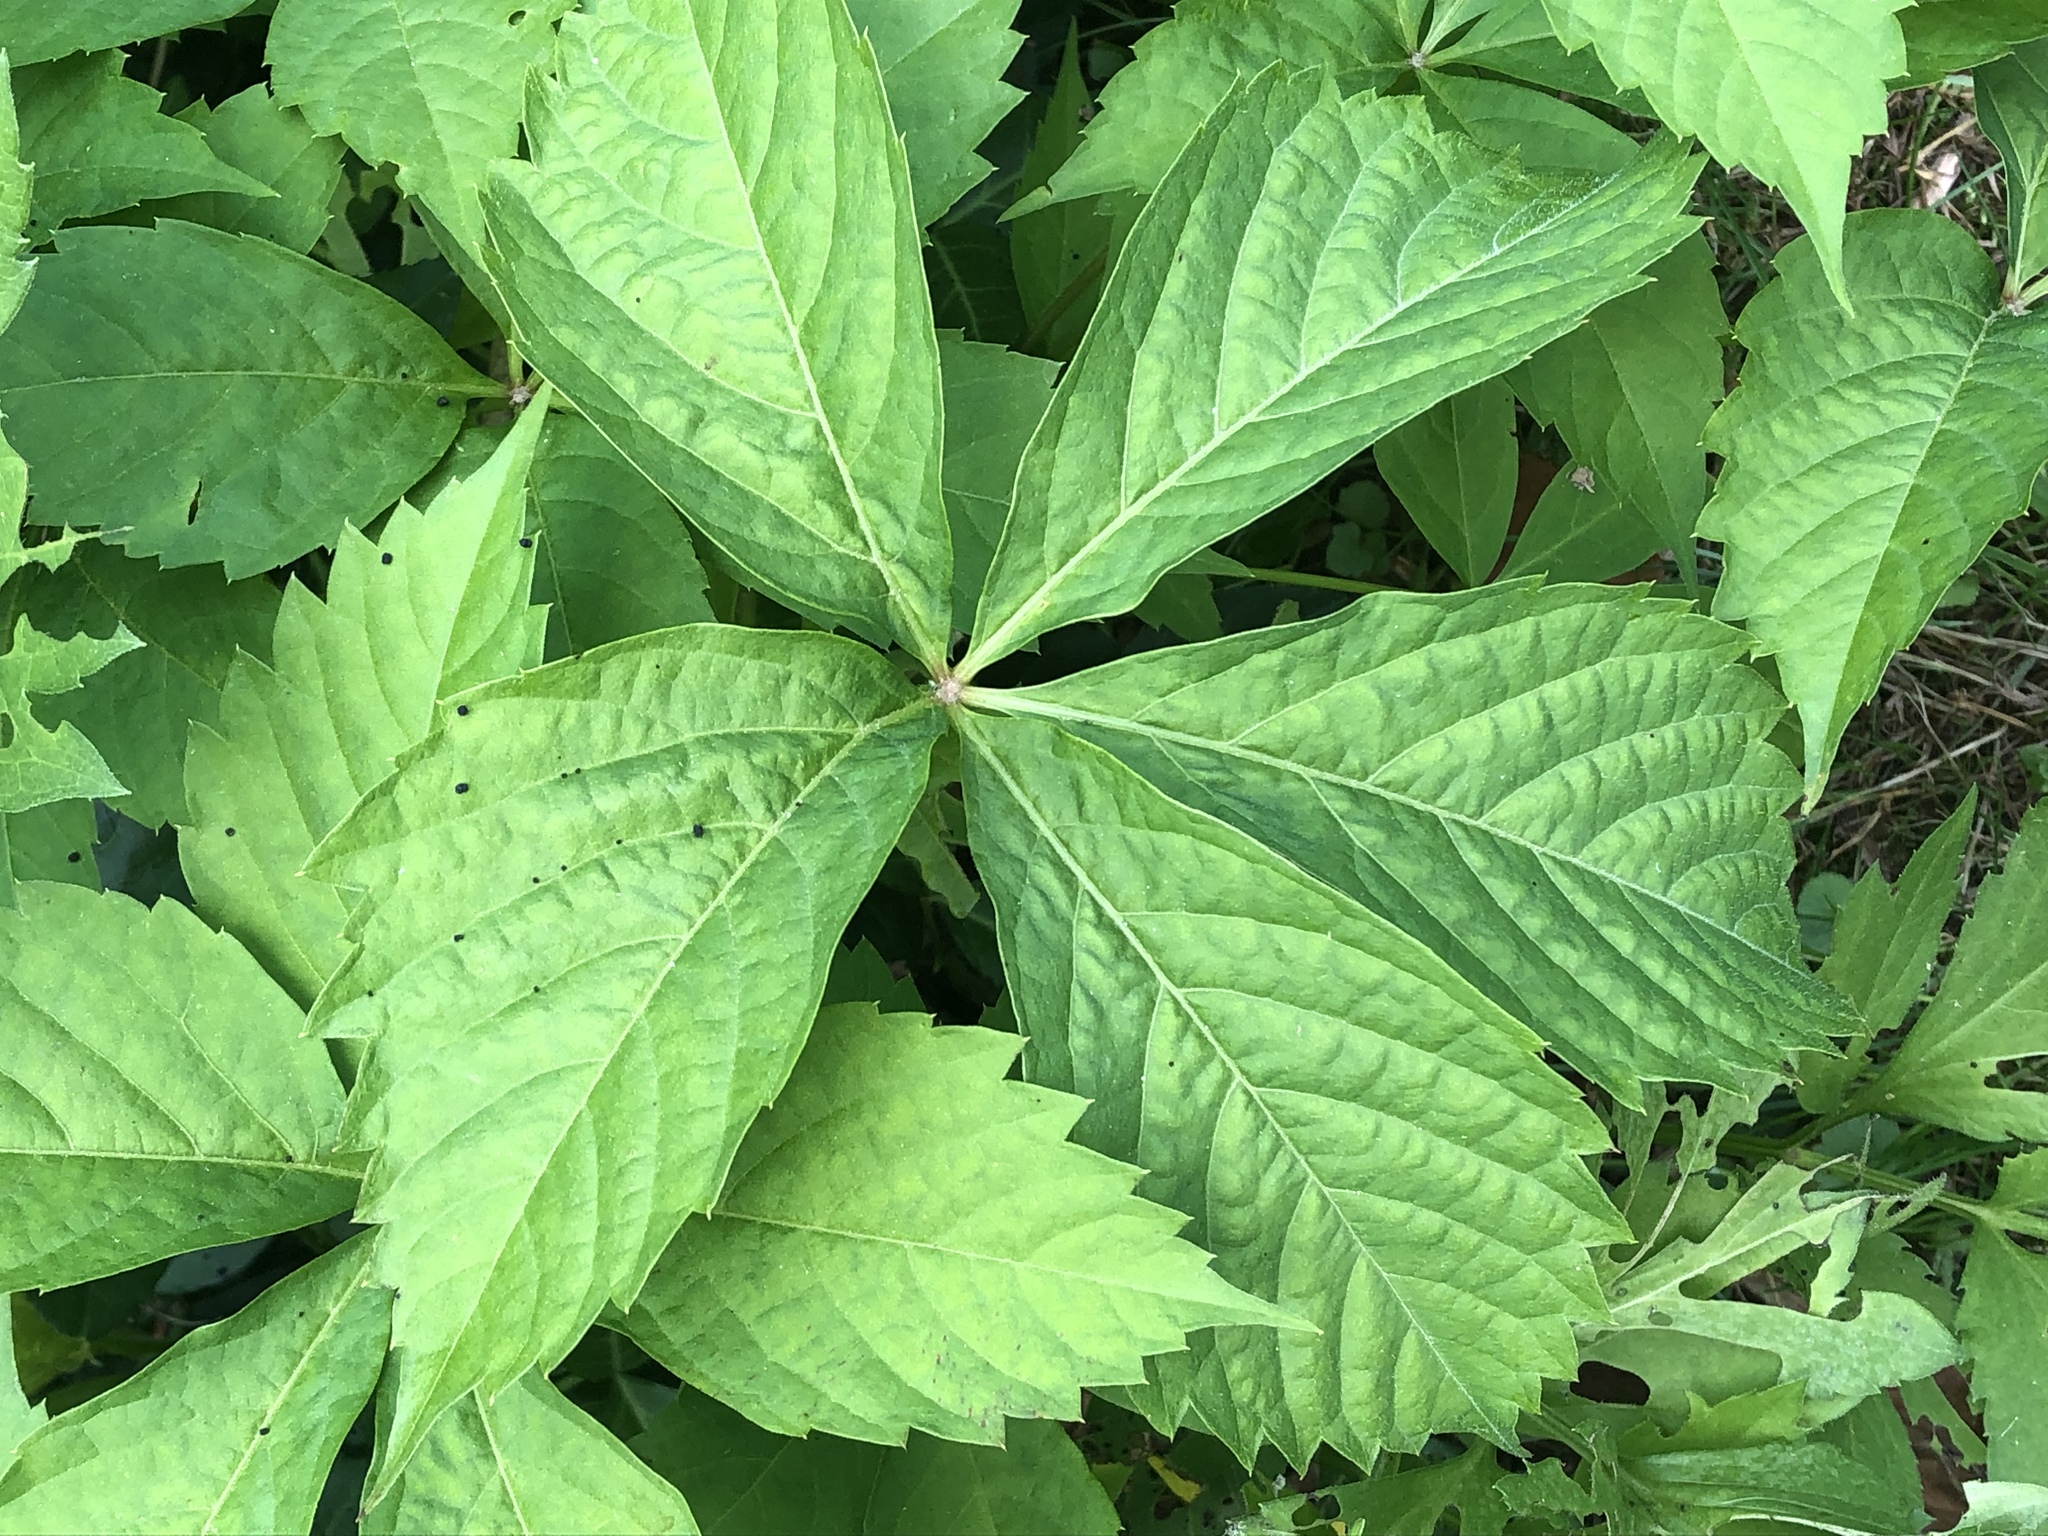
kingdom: Plantae
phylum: Tracheophyta
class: Magnoliopsida
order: Vitales
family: Vitaceae
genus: Parthenocissus
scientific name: Parthenocissus quinquefolia
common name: Virginia-creeper
